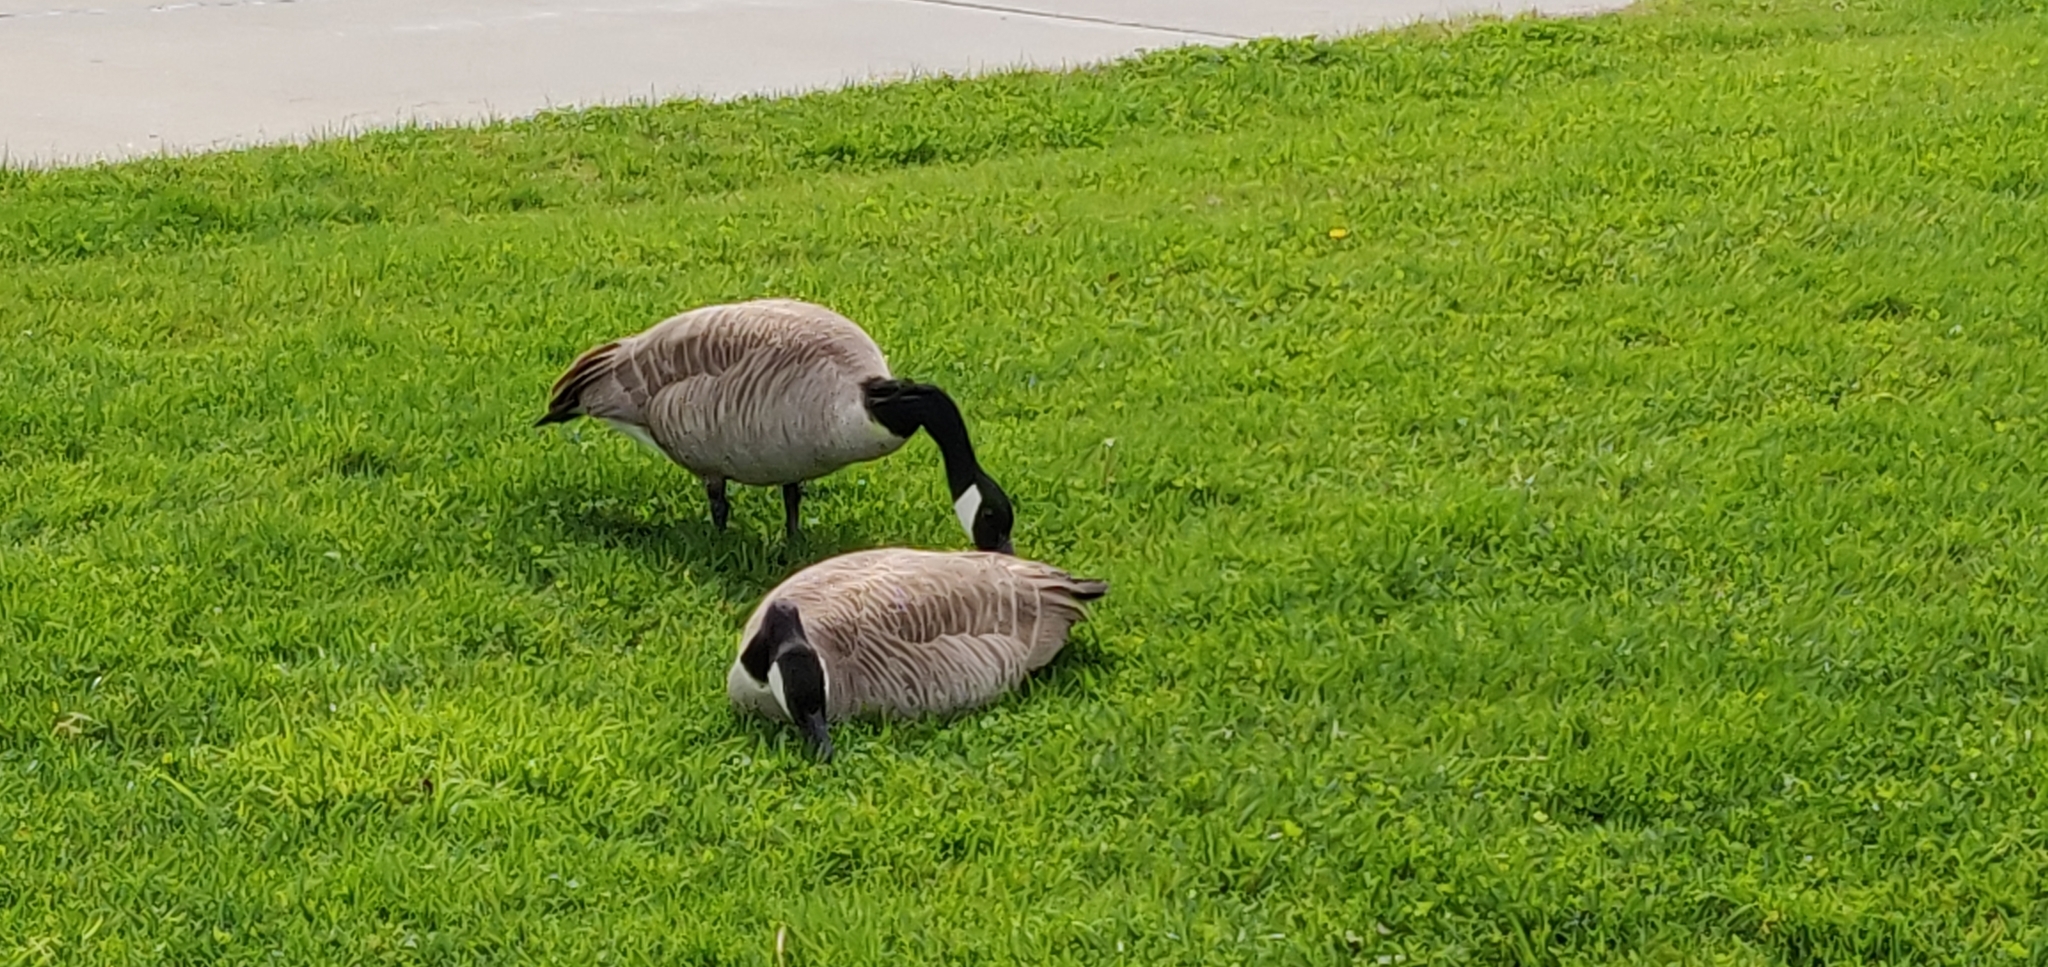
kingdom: Animalia
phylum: Chordata
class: Aves
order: Anseriformes
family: Anatidae
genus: Branta
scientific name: Branta canadensis
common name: Canada goose
